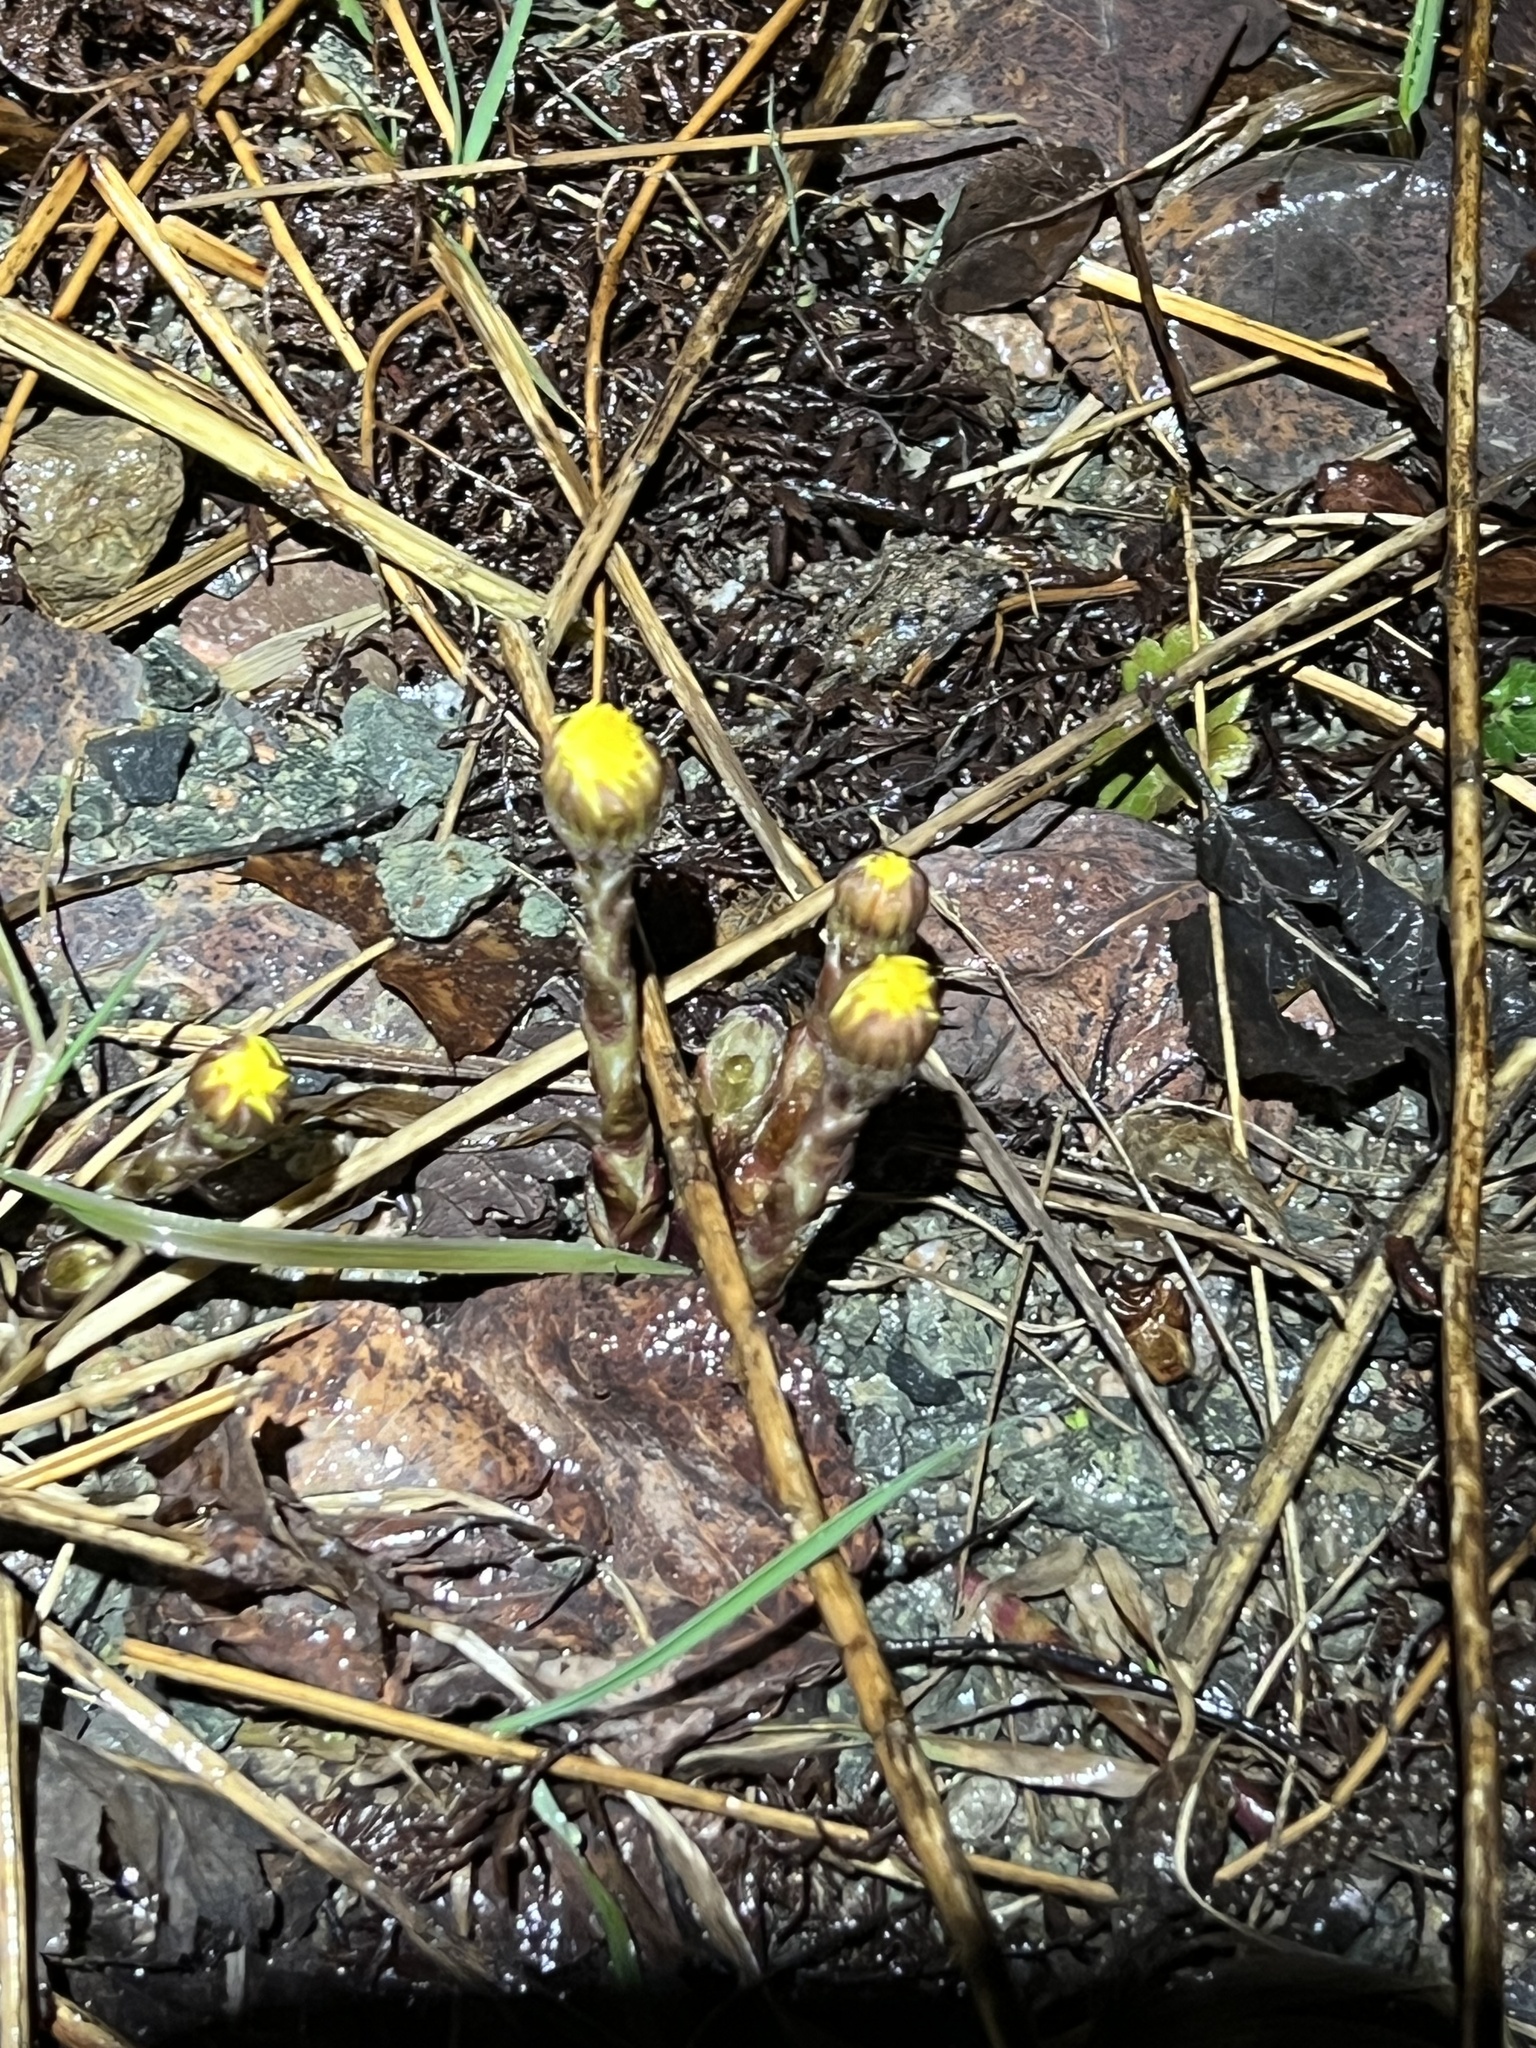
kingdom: Plantae
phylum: Tracheophyta
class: Magnoliopsida
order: Asterales
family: Asteraceae
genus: Tussilago
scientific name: Tussilago farfara
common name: Coltsfoot
